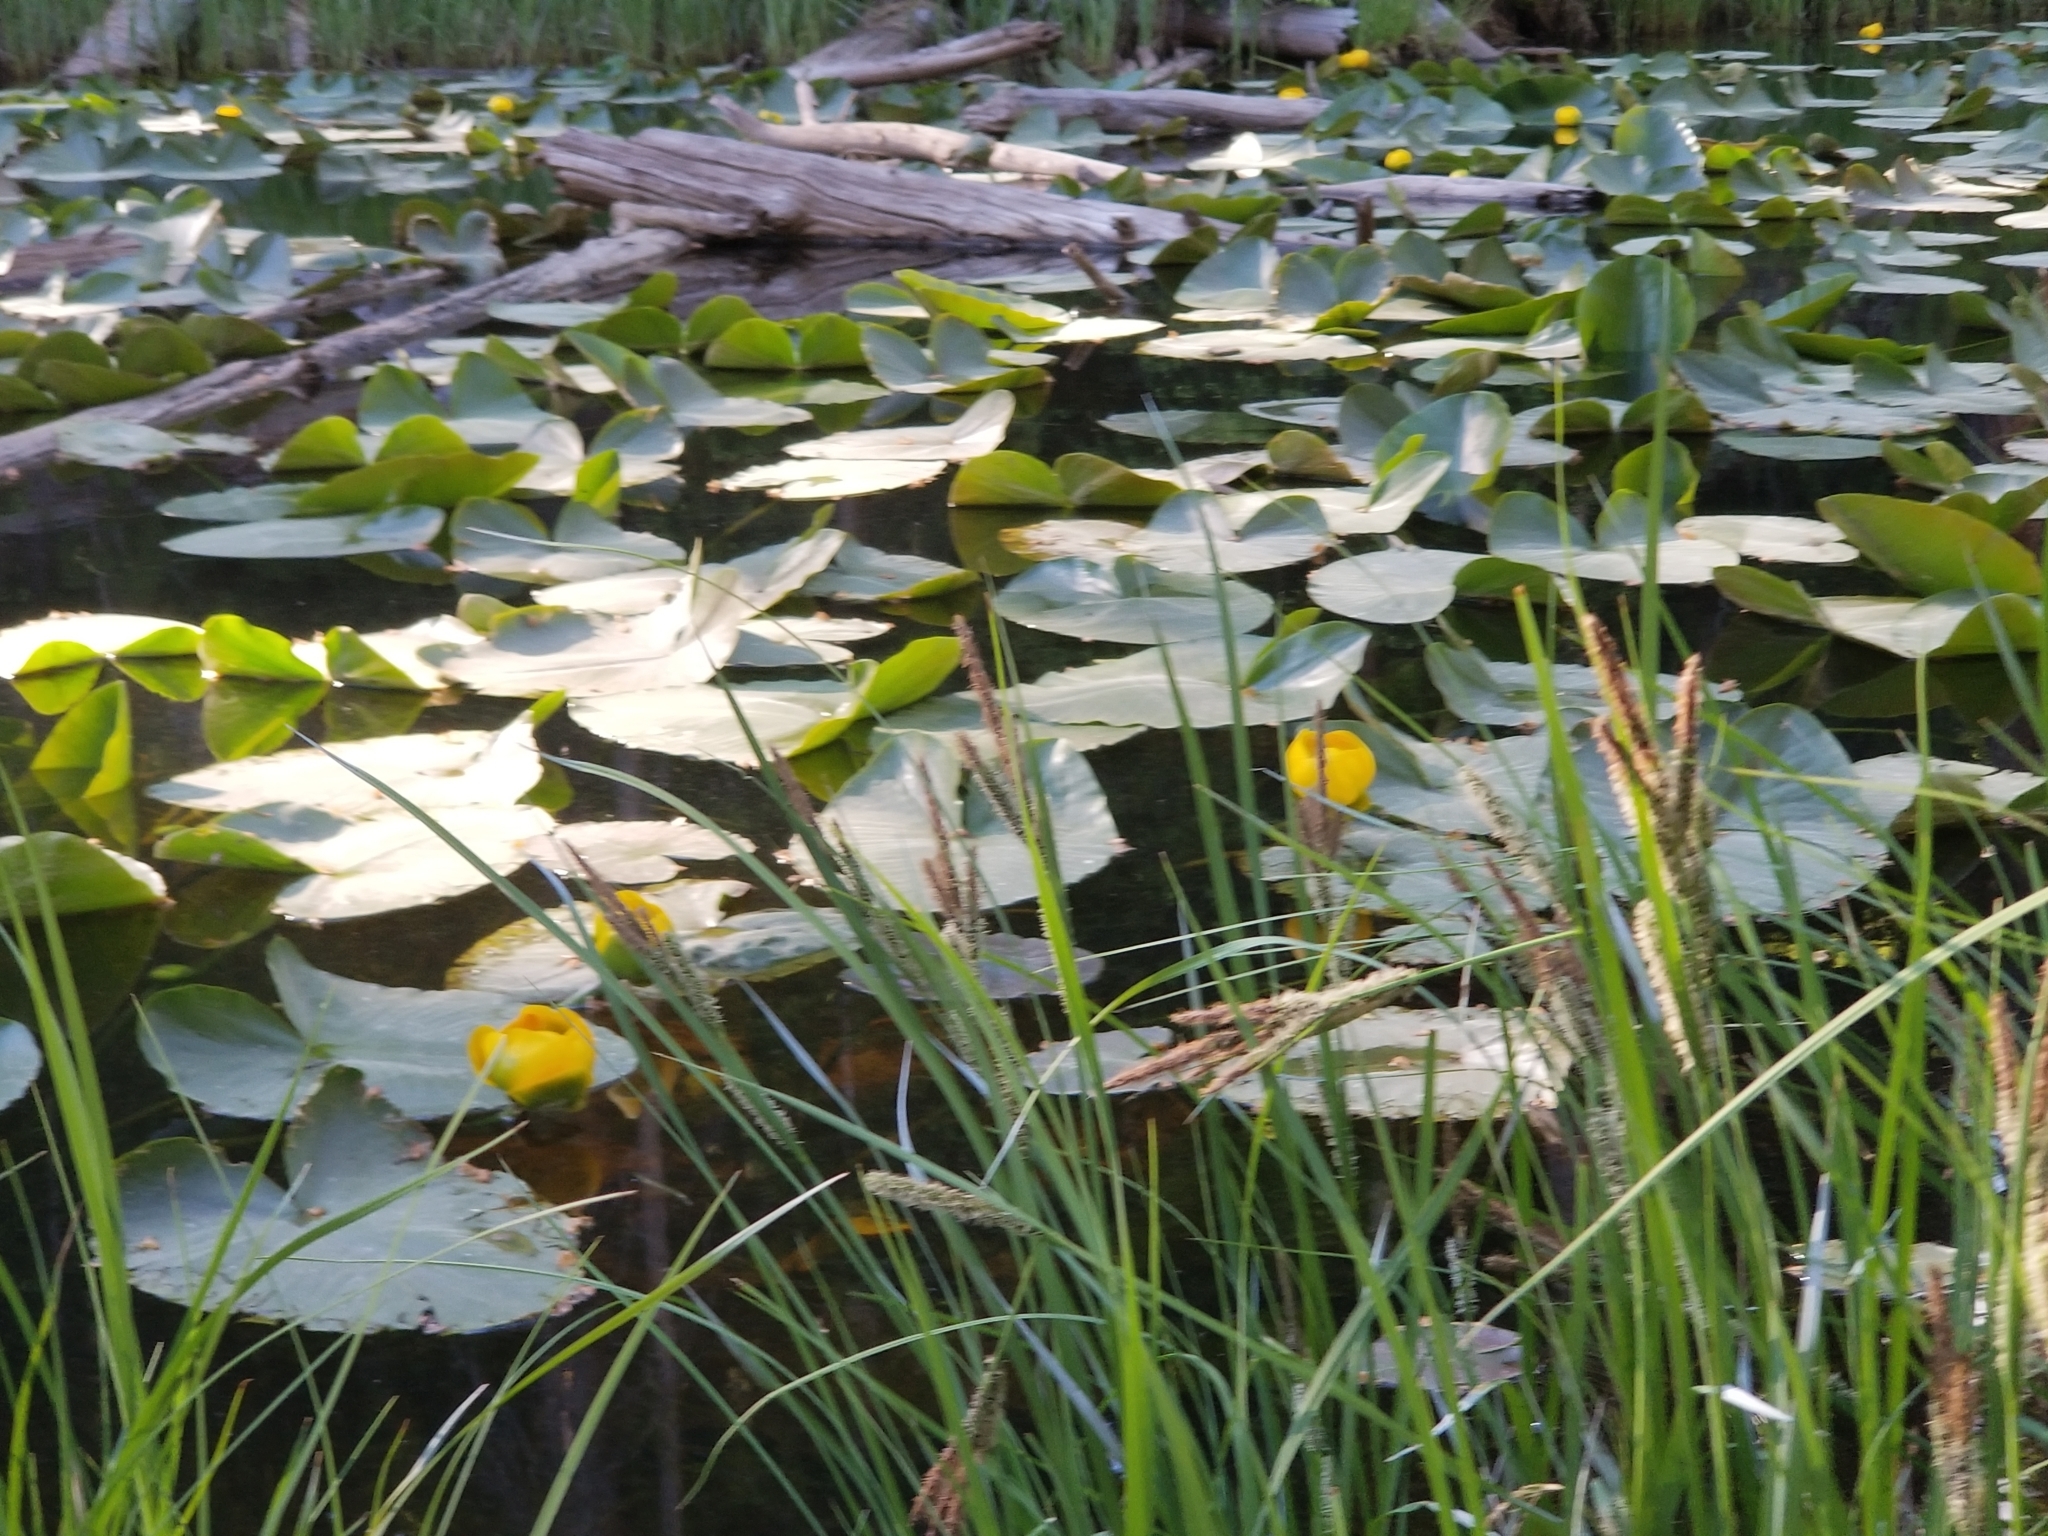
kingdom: Plantae
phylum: Tracheophyta
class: Magnoliopsida
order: Nymphaeales
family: Nymphaeaceae
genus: Nuphar
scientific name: Nuphar polysepala
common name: Rocky mountain cow-lily
